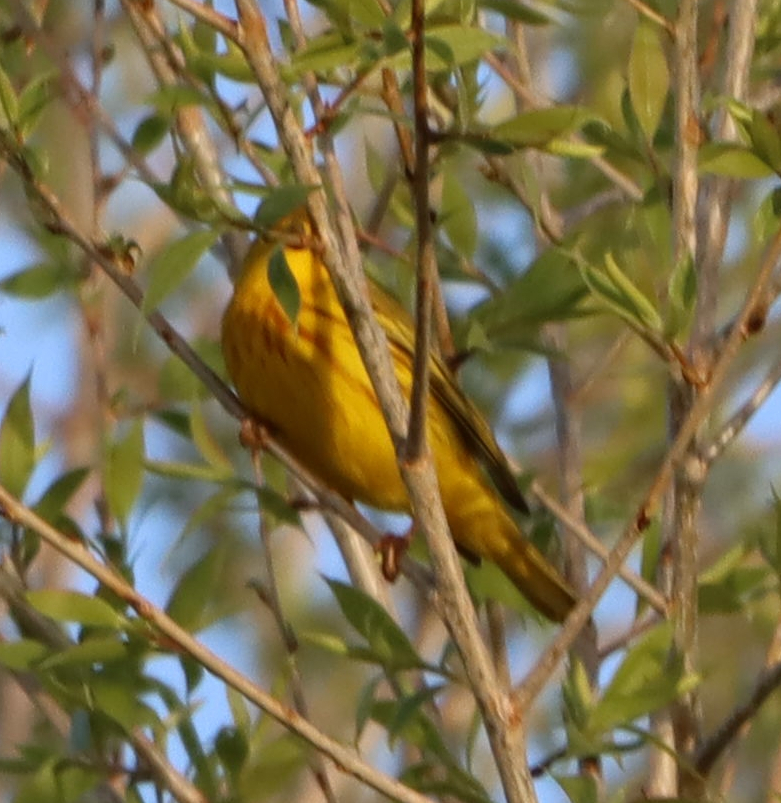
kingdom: Animalia
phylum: Chordata
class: Aves
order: Passeriformes
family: Parulidae
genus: Setophaga
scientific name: Setophaga petechia
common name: Yellow warbler
